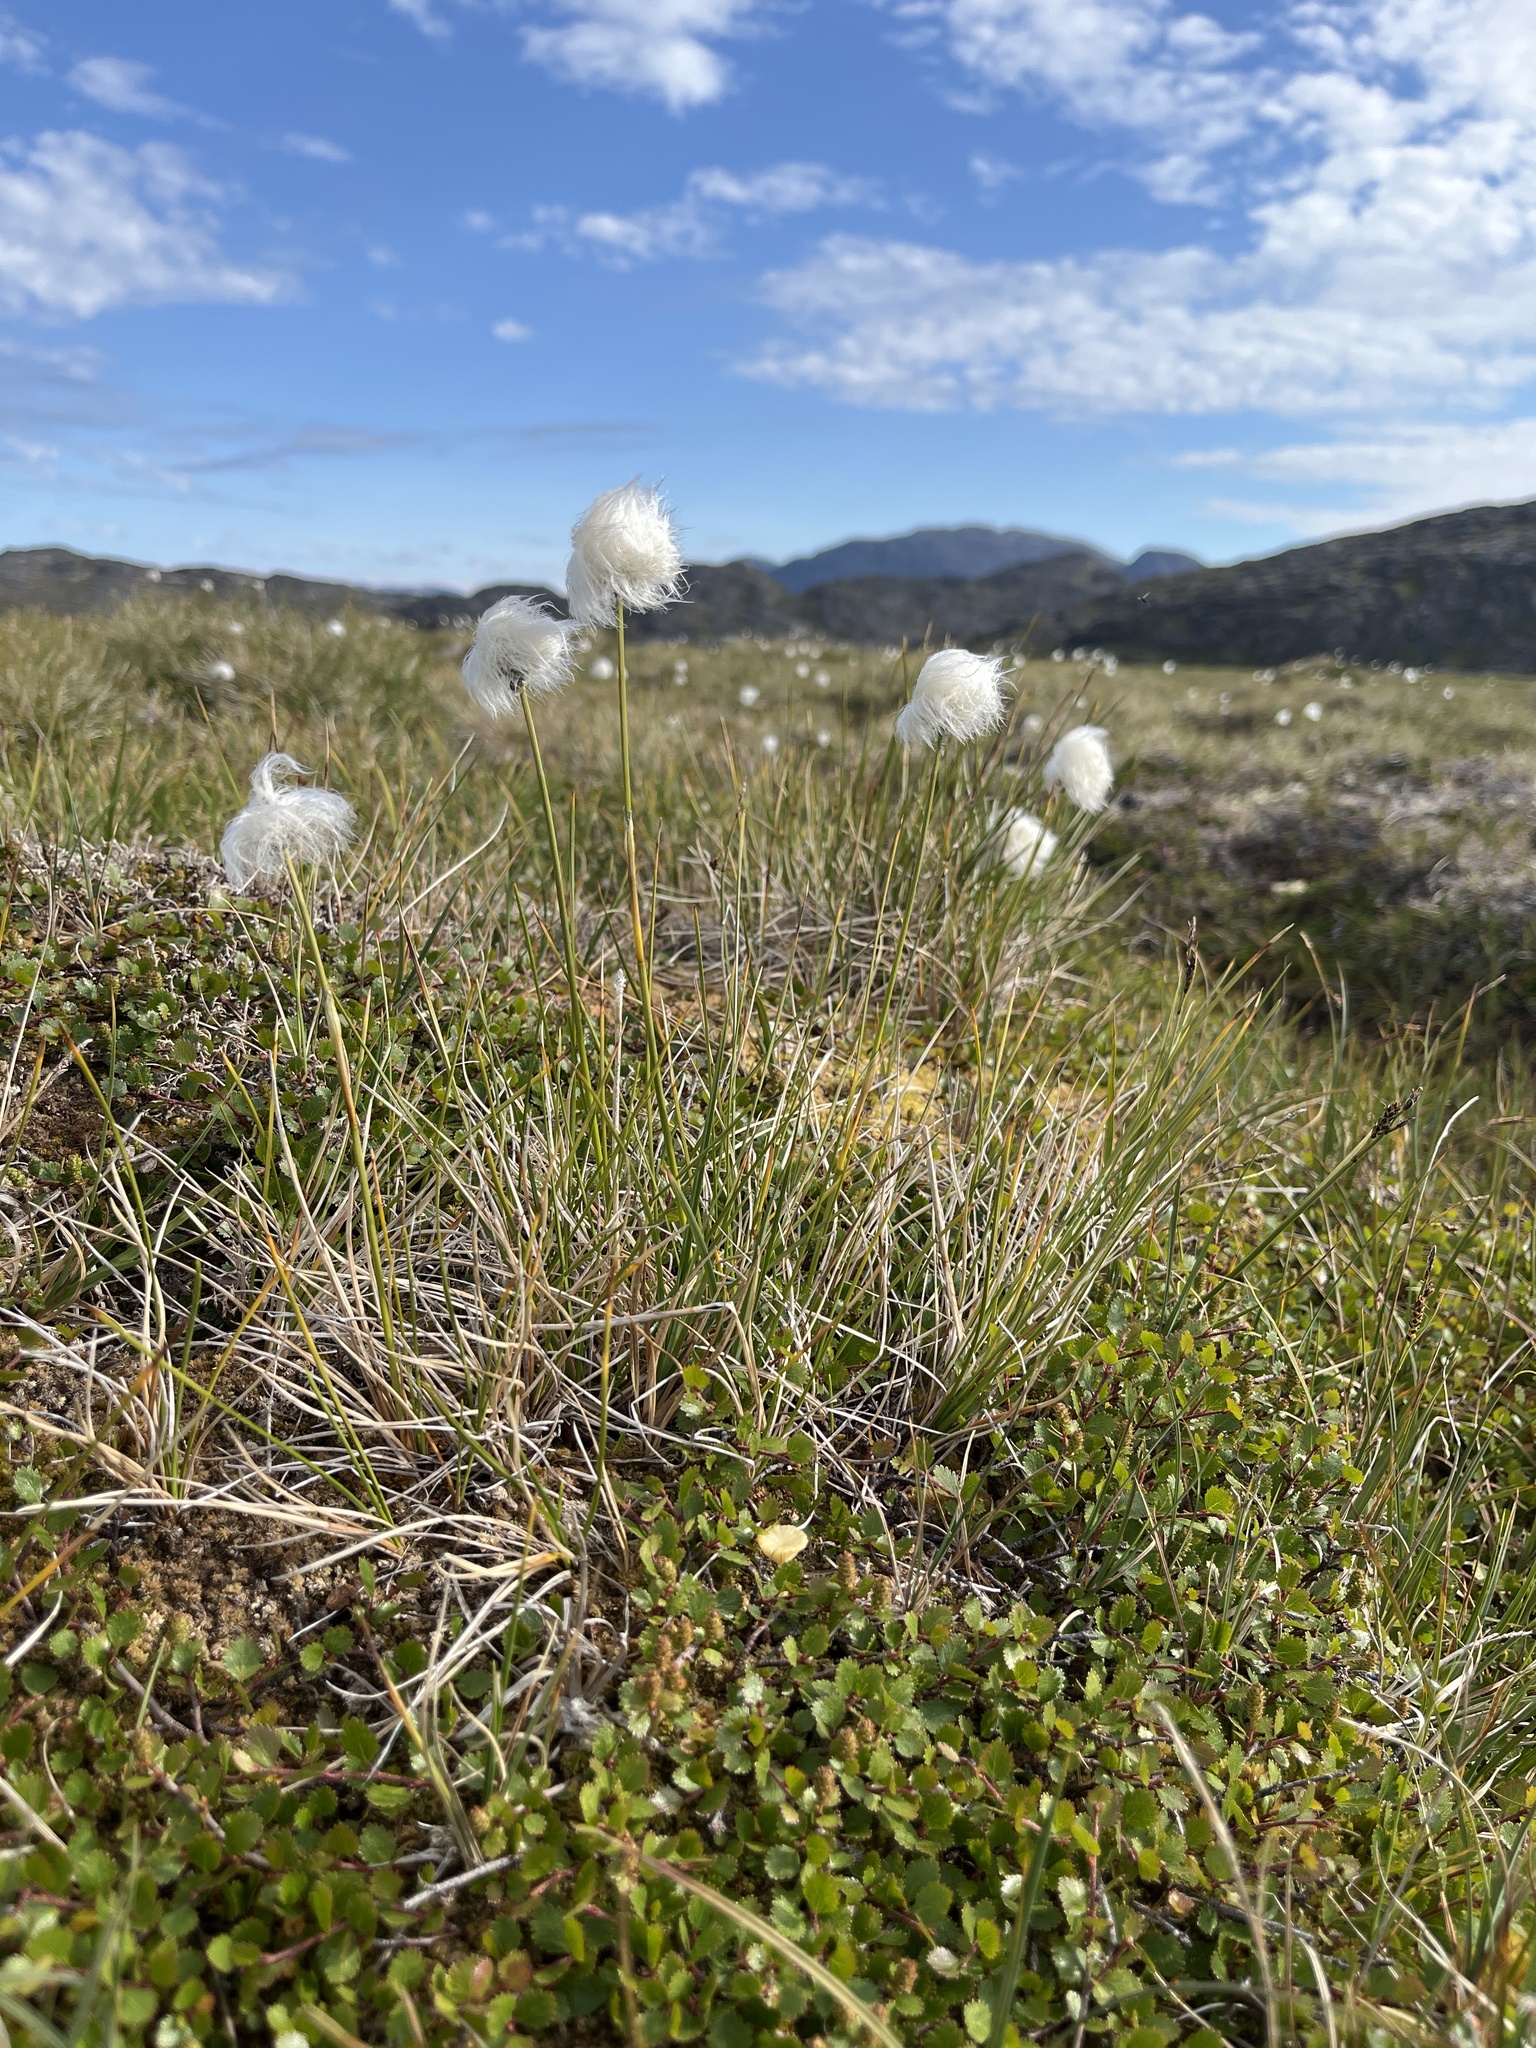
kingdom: Plantae
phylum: Tracheophyta
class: Liliopsida
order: Poales
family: Cyperaceae
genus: Eriophorum
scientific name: Eriophorum vaginatum
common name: Hare's-tail cottongrass
